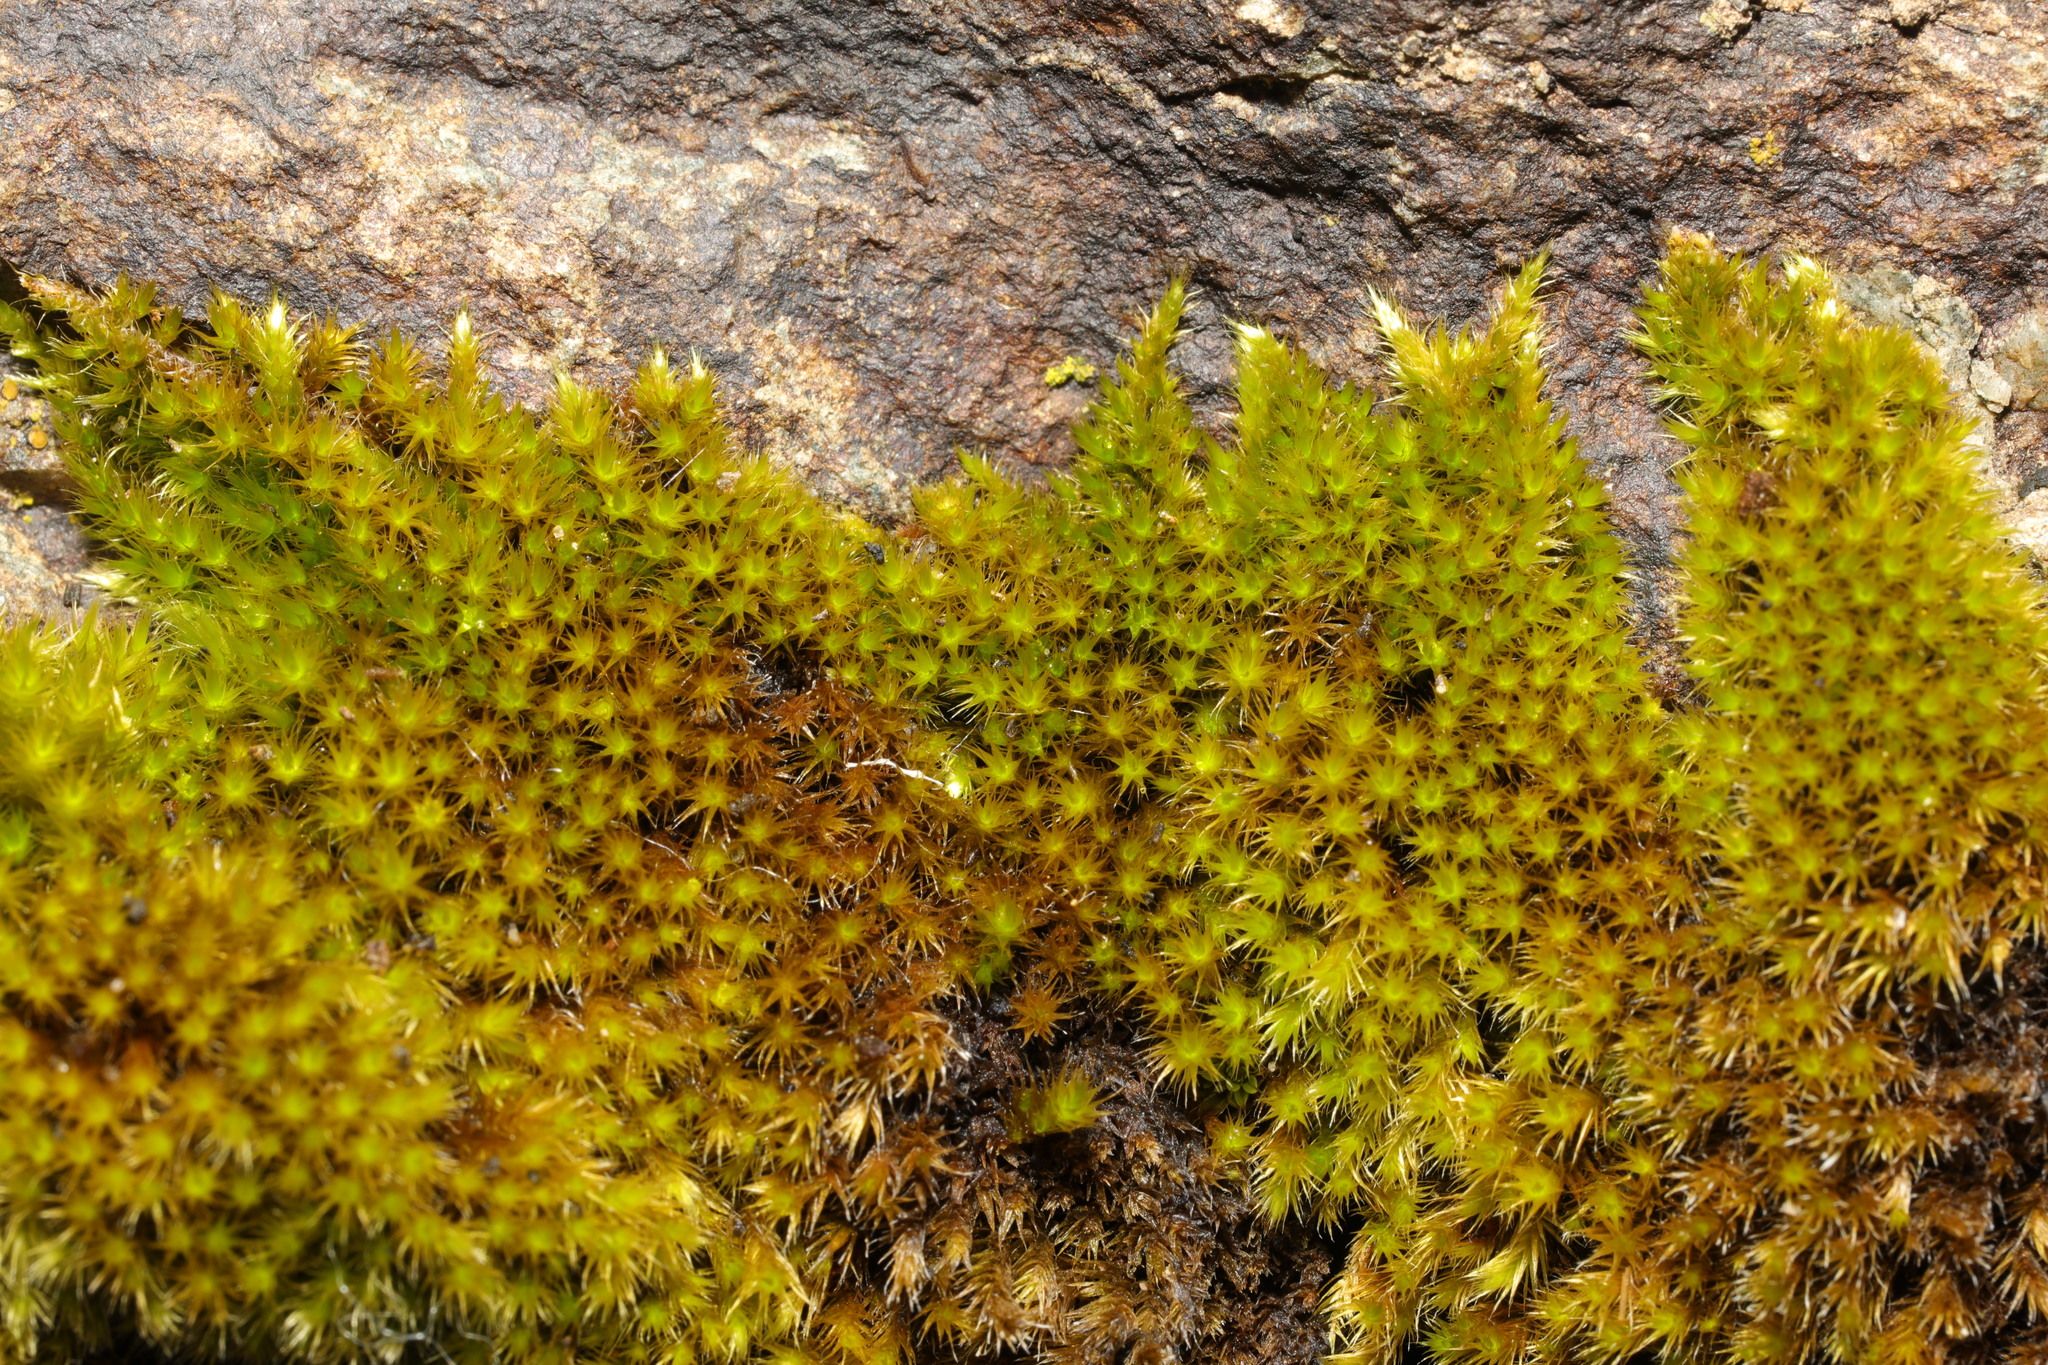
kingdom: Plantae
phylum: Bryophyta
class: Bryopsida
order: Hypnales
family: Brachytheciaceae
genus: Homalothecium
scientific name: Homalothecium sericeum
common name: Silky wall feather-moss
